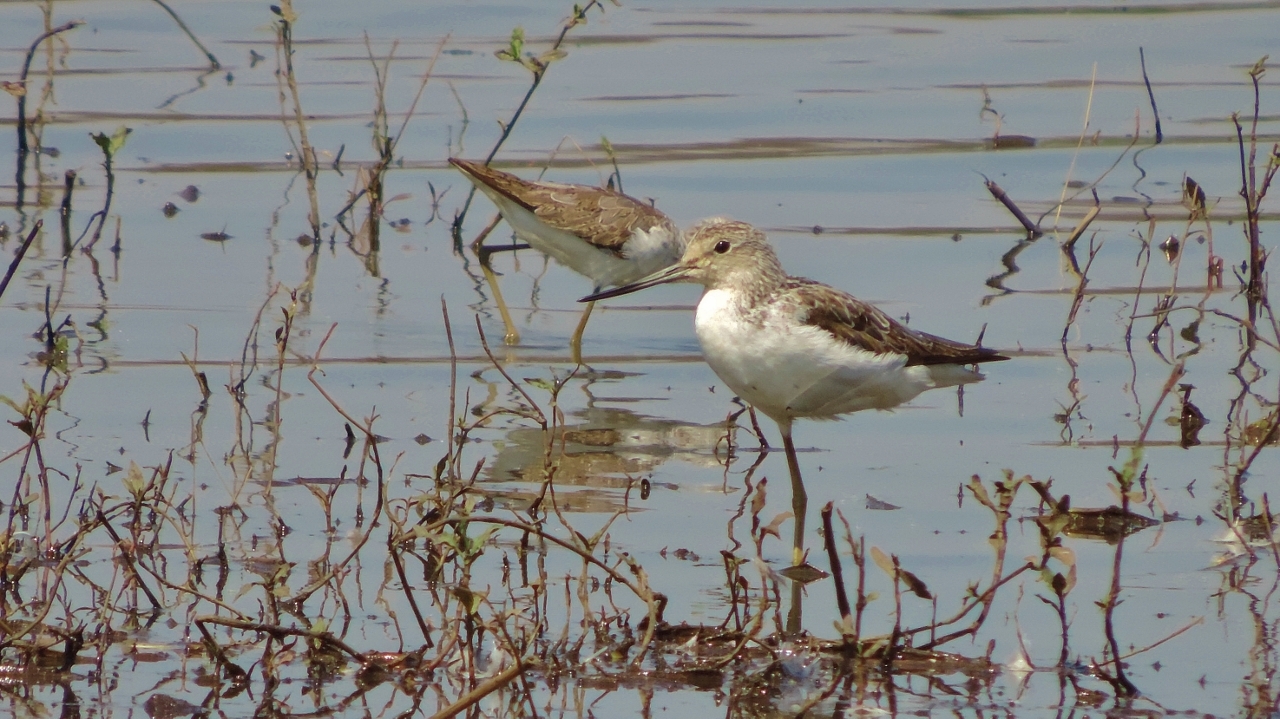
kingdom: Animalia
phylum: Chordata
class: Aves
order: Charadriiformes
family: Scolopacidae
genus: Tringa
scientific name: Tringa nebularia
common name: Common greenshank
